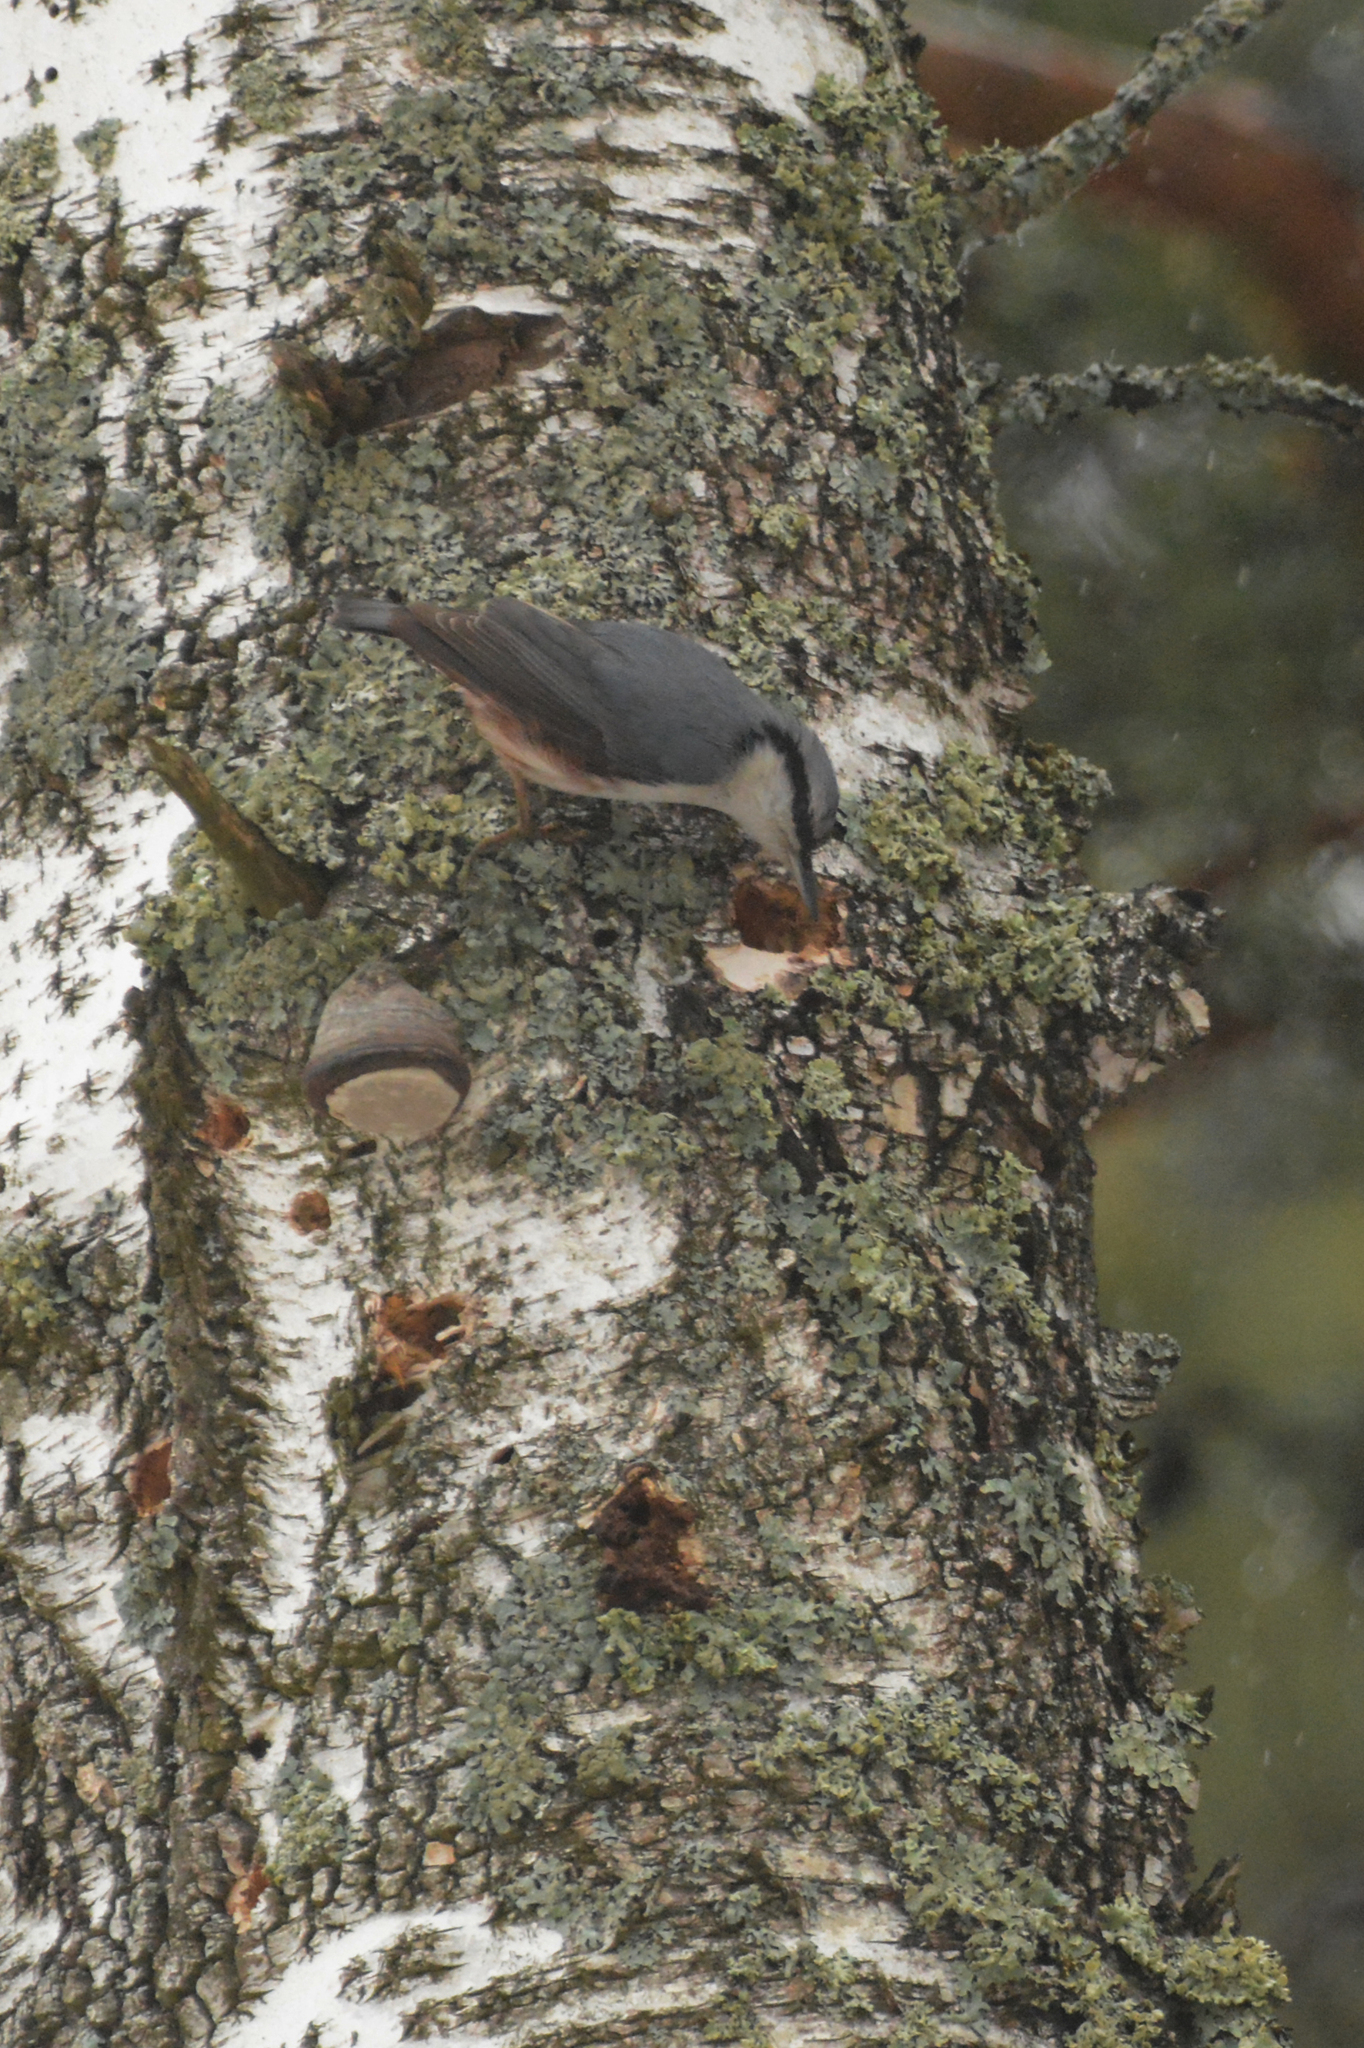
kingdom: Animalia
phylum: Chordata
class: Aves
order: Passeriformes
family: Sittidae
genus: Sitta
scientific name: Sitta europaea
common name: Eurasian nuthatch
